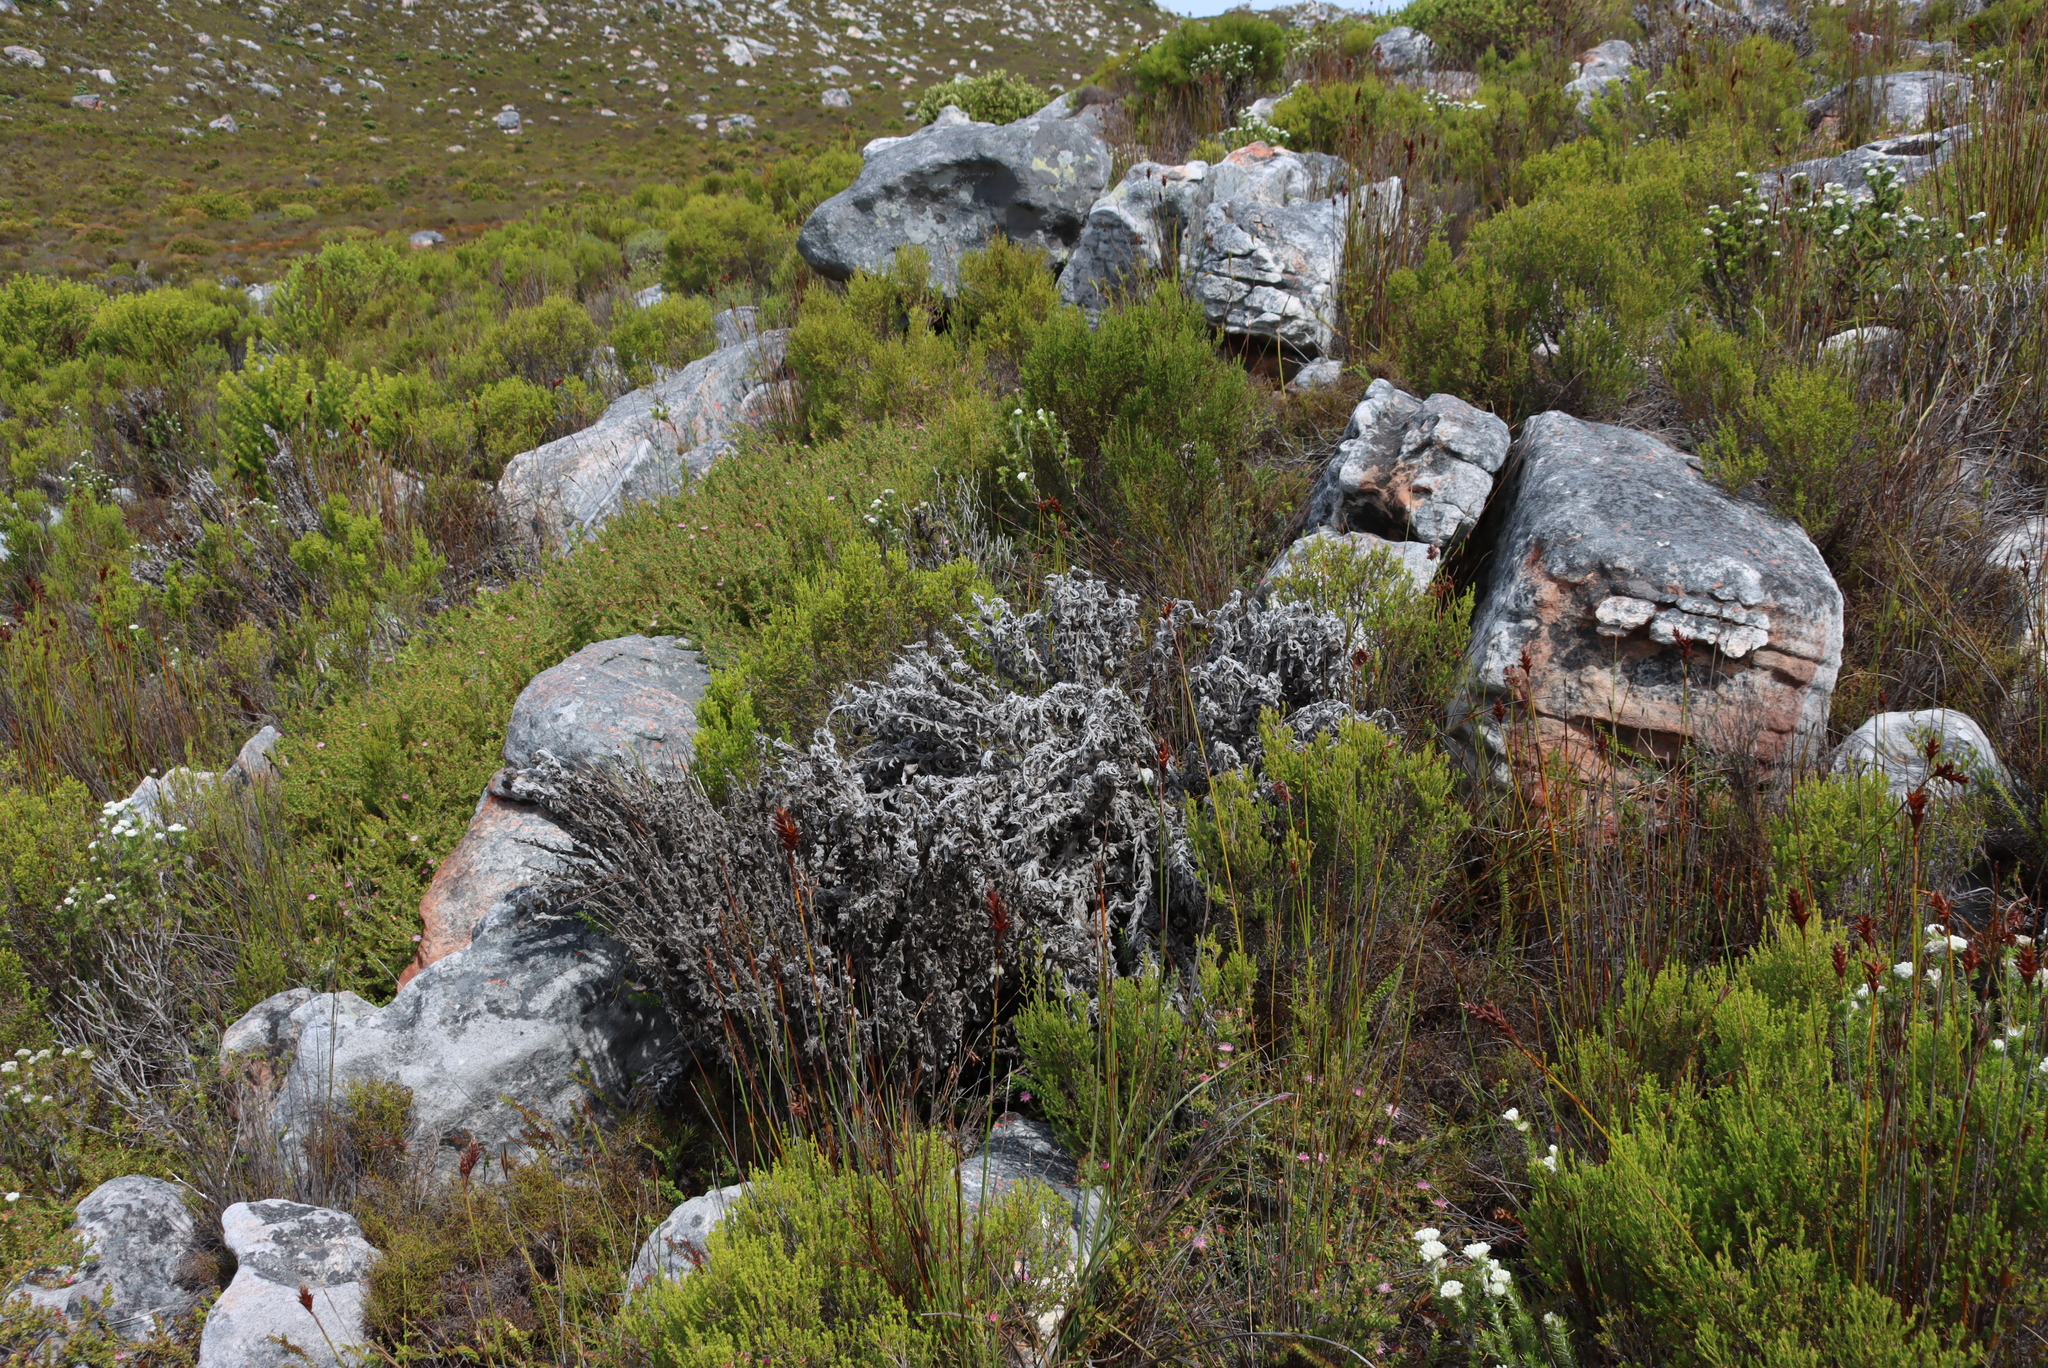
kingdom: Plantae
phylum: Tracheophyta
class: Magnoliopsida
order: Asterales
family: Asteraceae
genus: Syncarpha
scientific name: Syncarpha vestita
